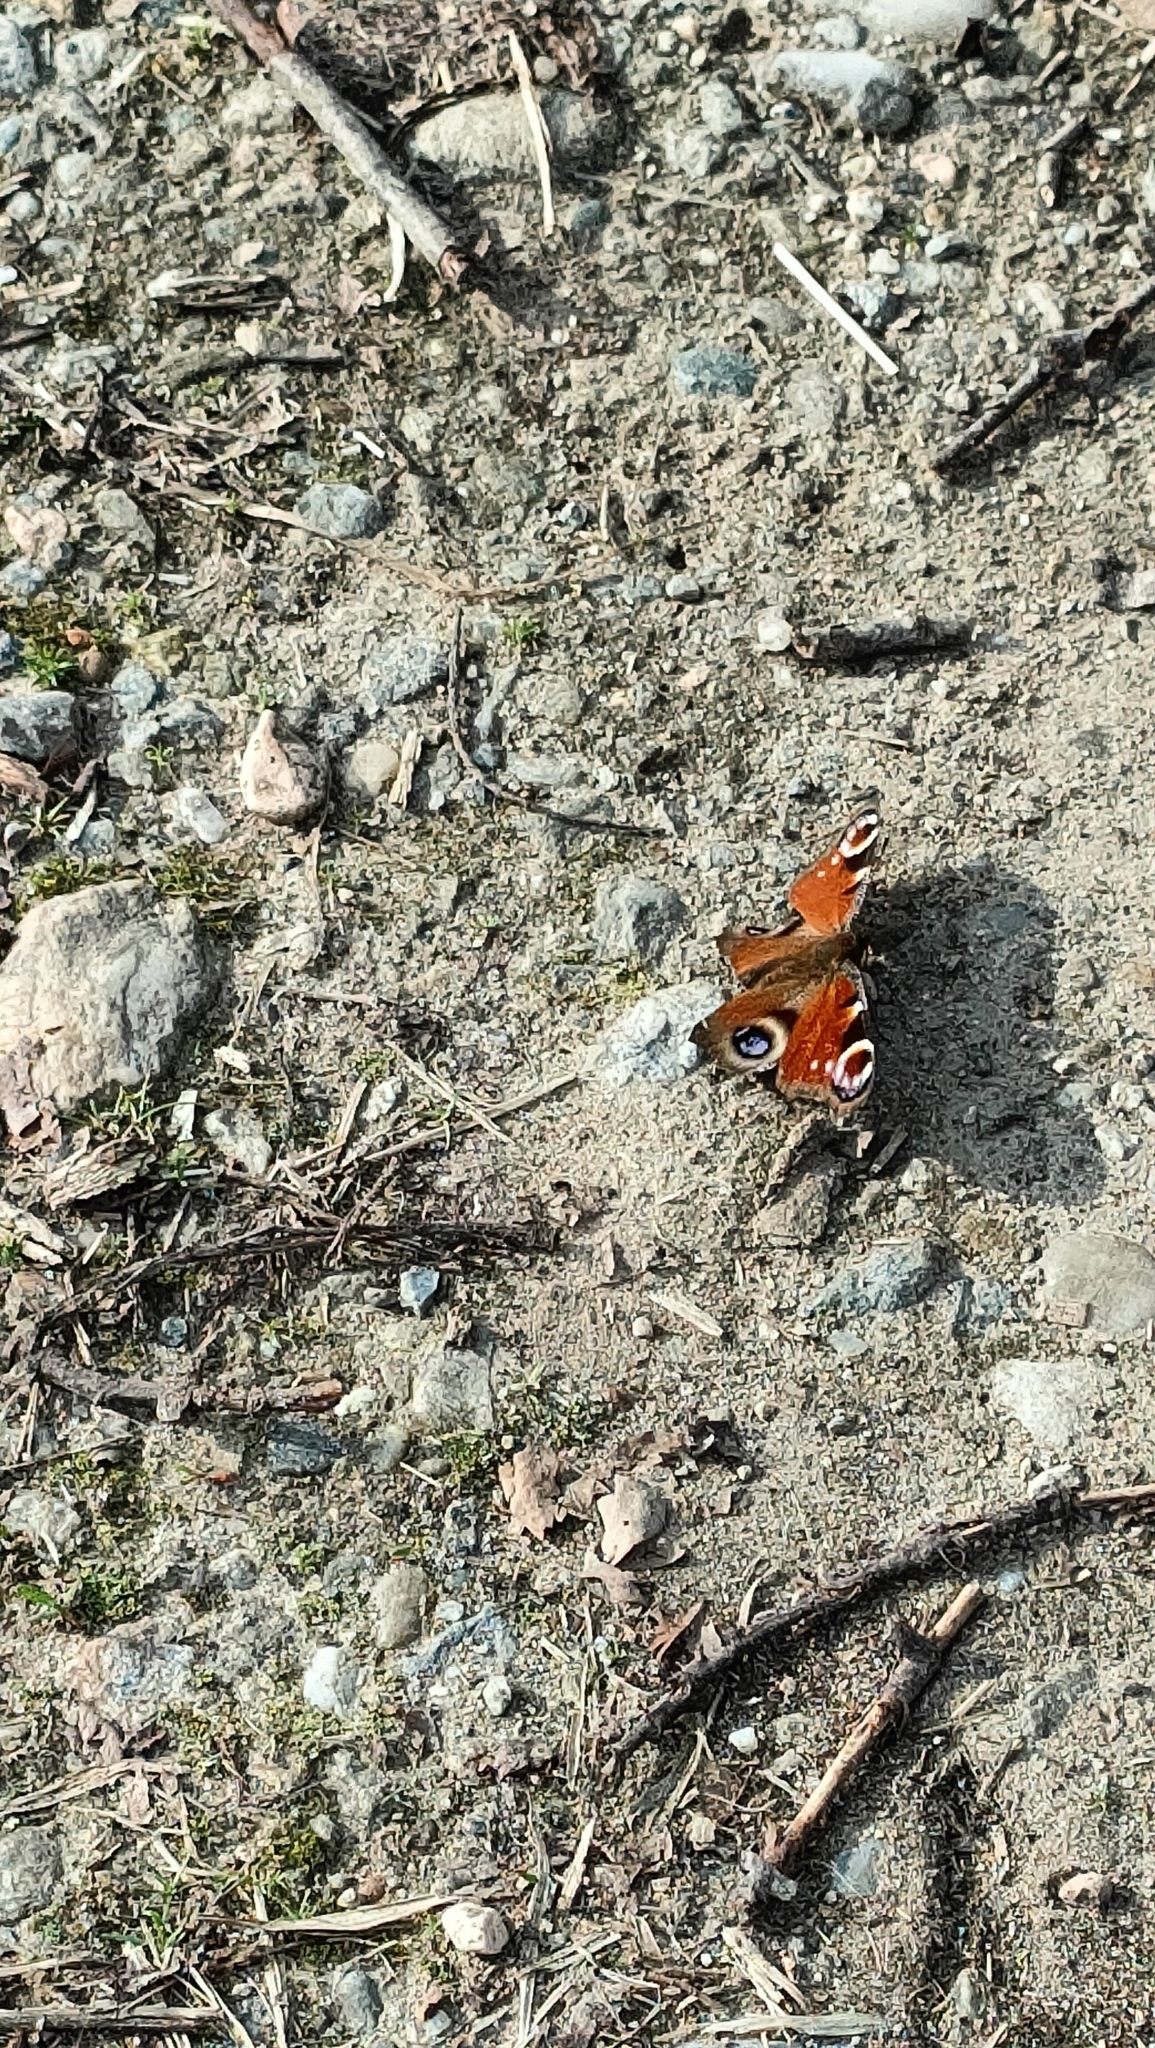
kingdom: Animalia
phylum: Arthropoda
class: Insecta
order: Lepidoptera
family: Nymphalidae
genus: Aglais
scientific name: Aglais io
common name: Peacock
